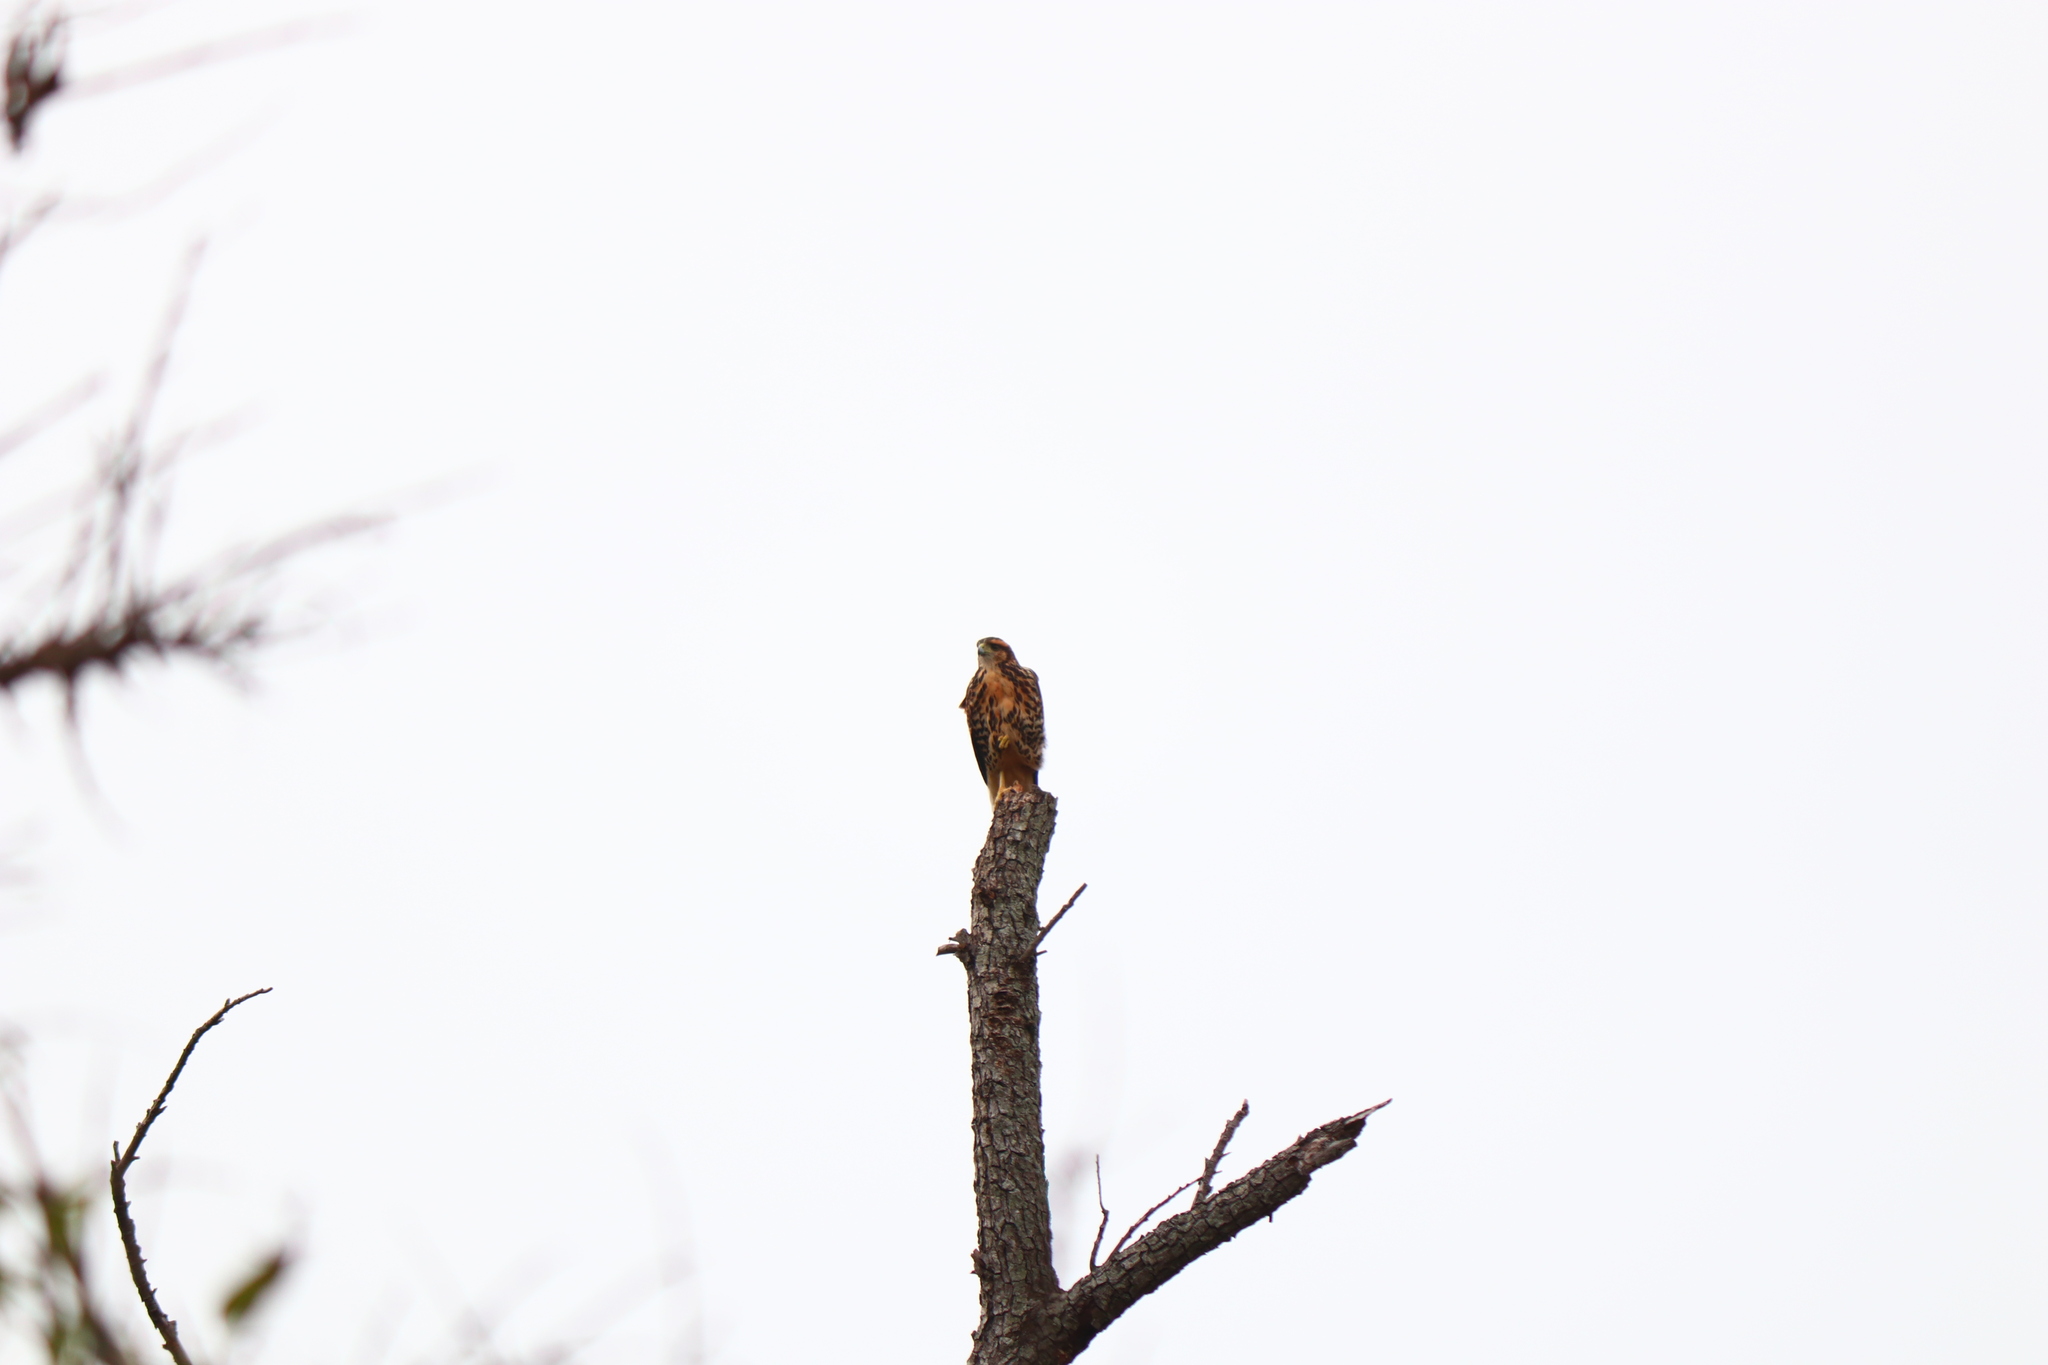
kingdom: Animalia
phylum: Chordata
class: Aves
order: Accipitriformes
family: Accipitridae
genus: Parabuteo
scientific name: Parabuteo unicinctus
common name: Harris's hawk
